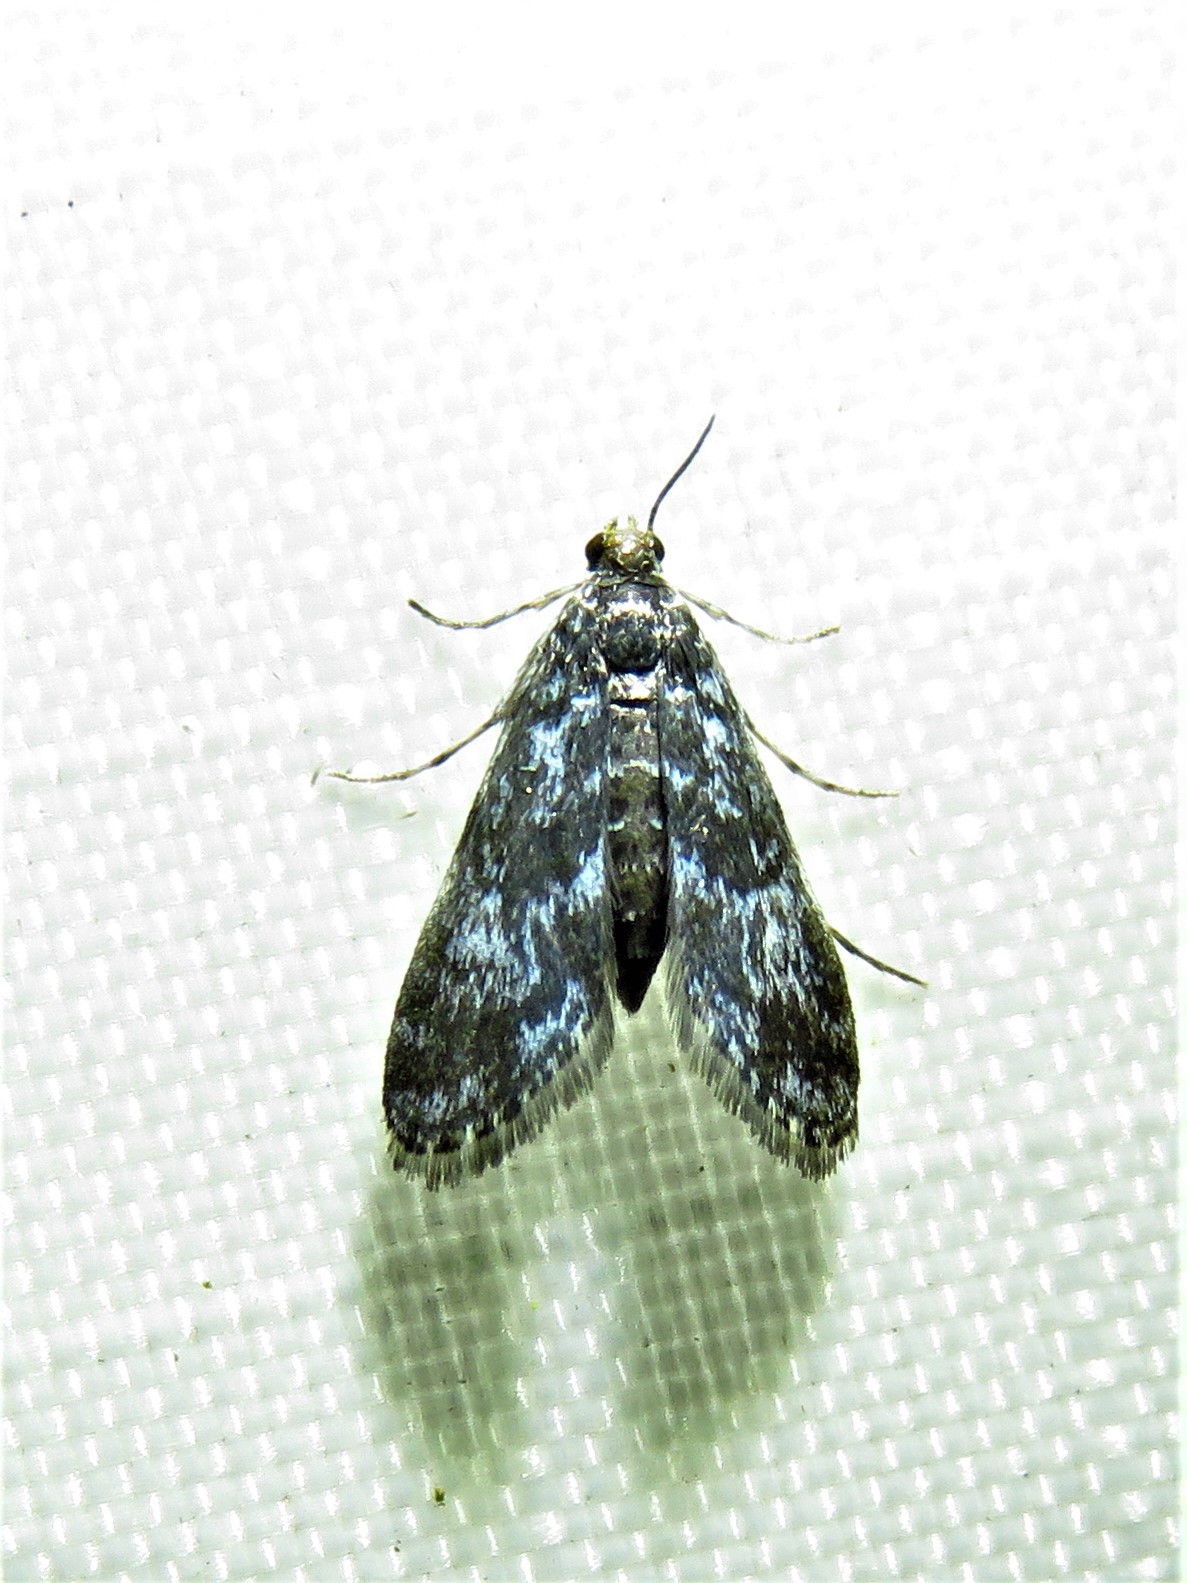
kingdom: Animalia
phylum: Arthropoda
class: Insecta
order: Lepidoptera
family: Crambidae
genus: Elophila
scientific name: Elophila tinealis
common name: Black duckweed moth
